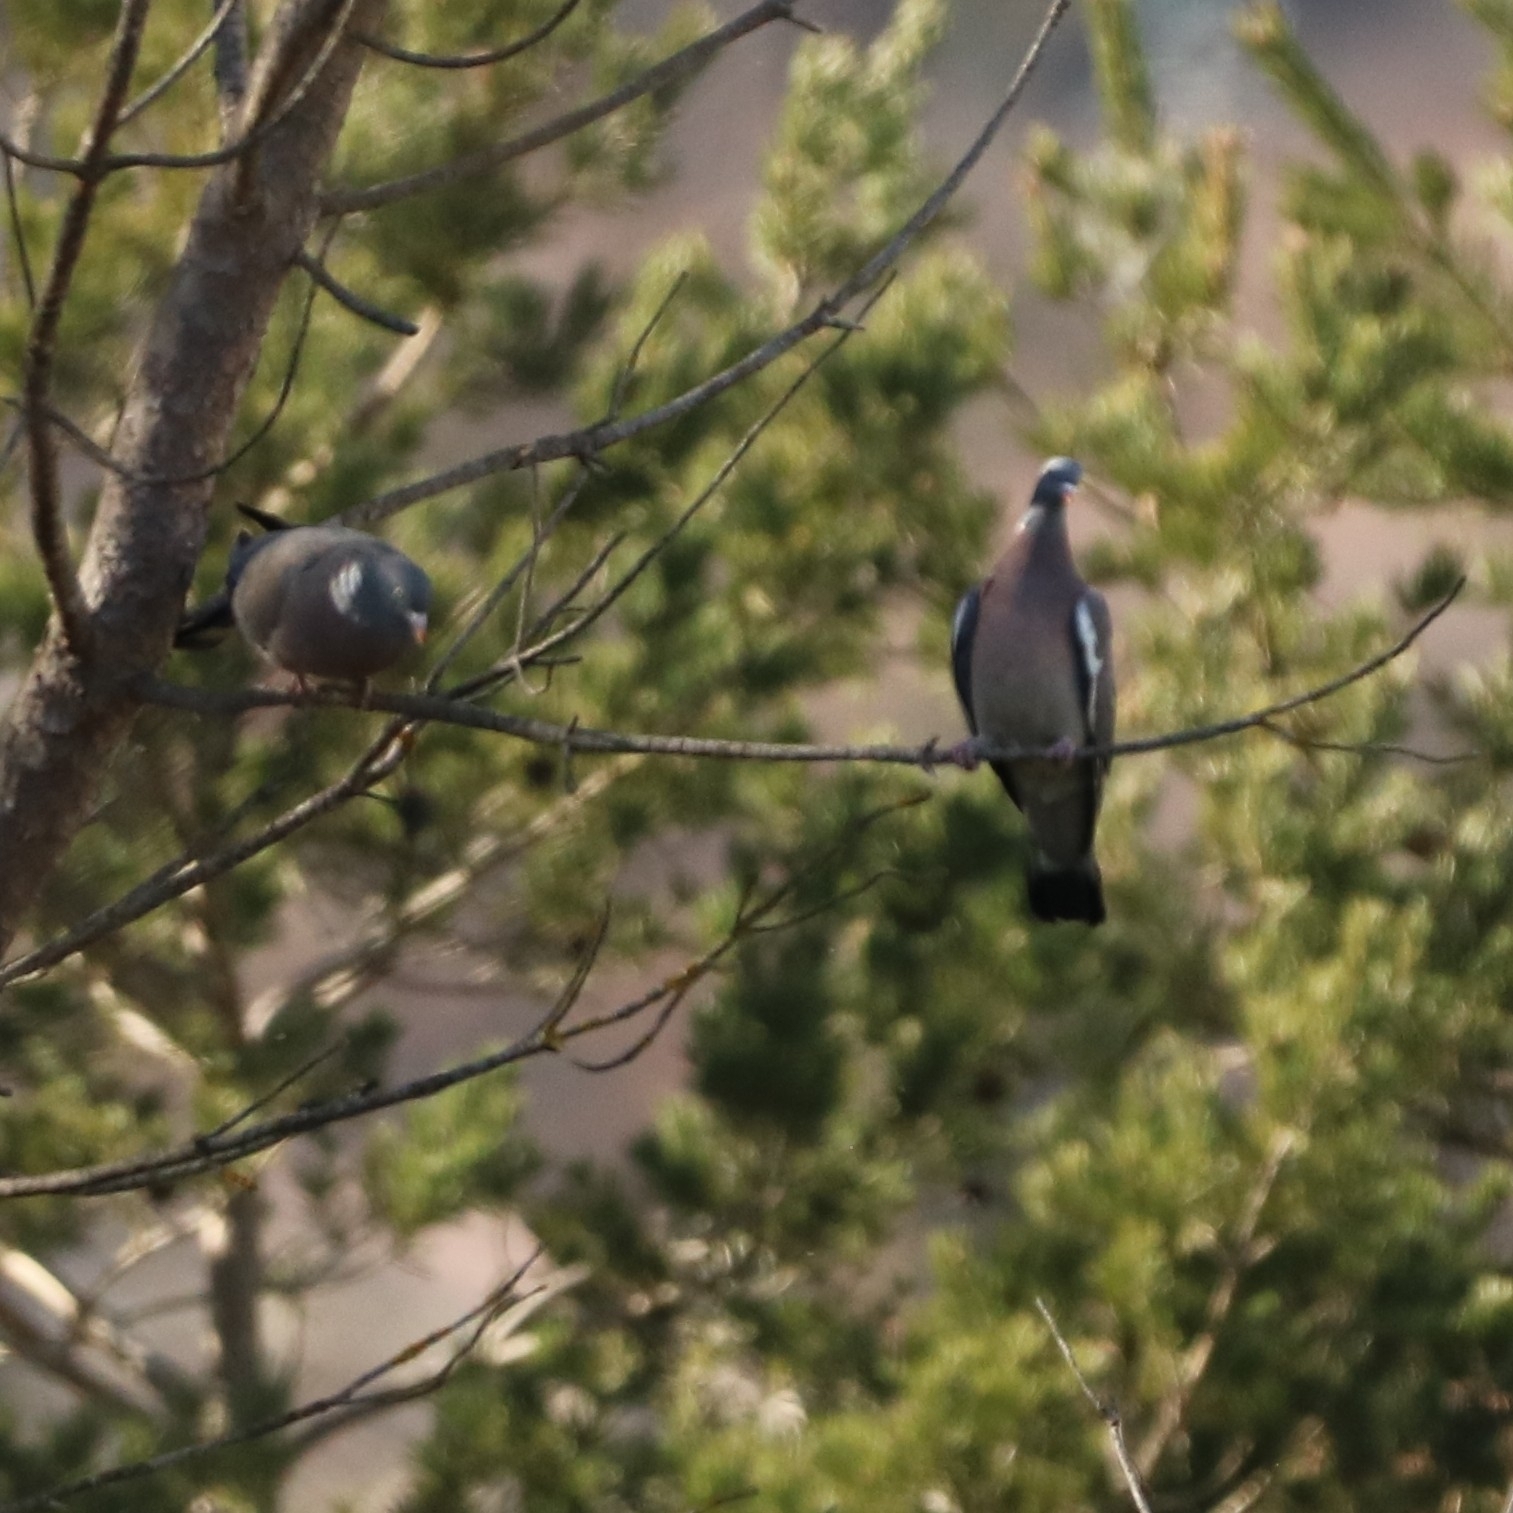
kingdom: Animalia
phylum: Chordata
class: Aves
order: Columbiformes
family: Columbidae
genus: Columba
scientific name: Columba palumbus
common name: Common wood pigeon
